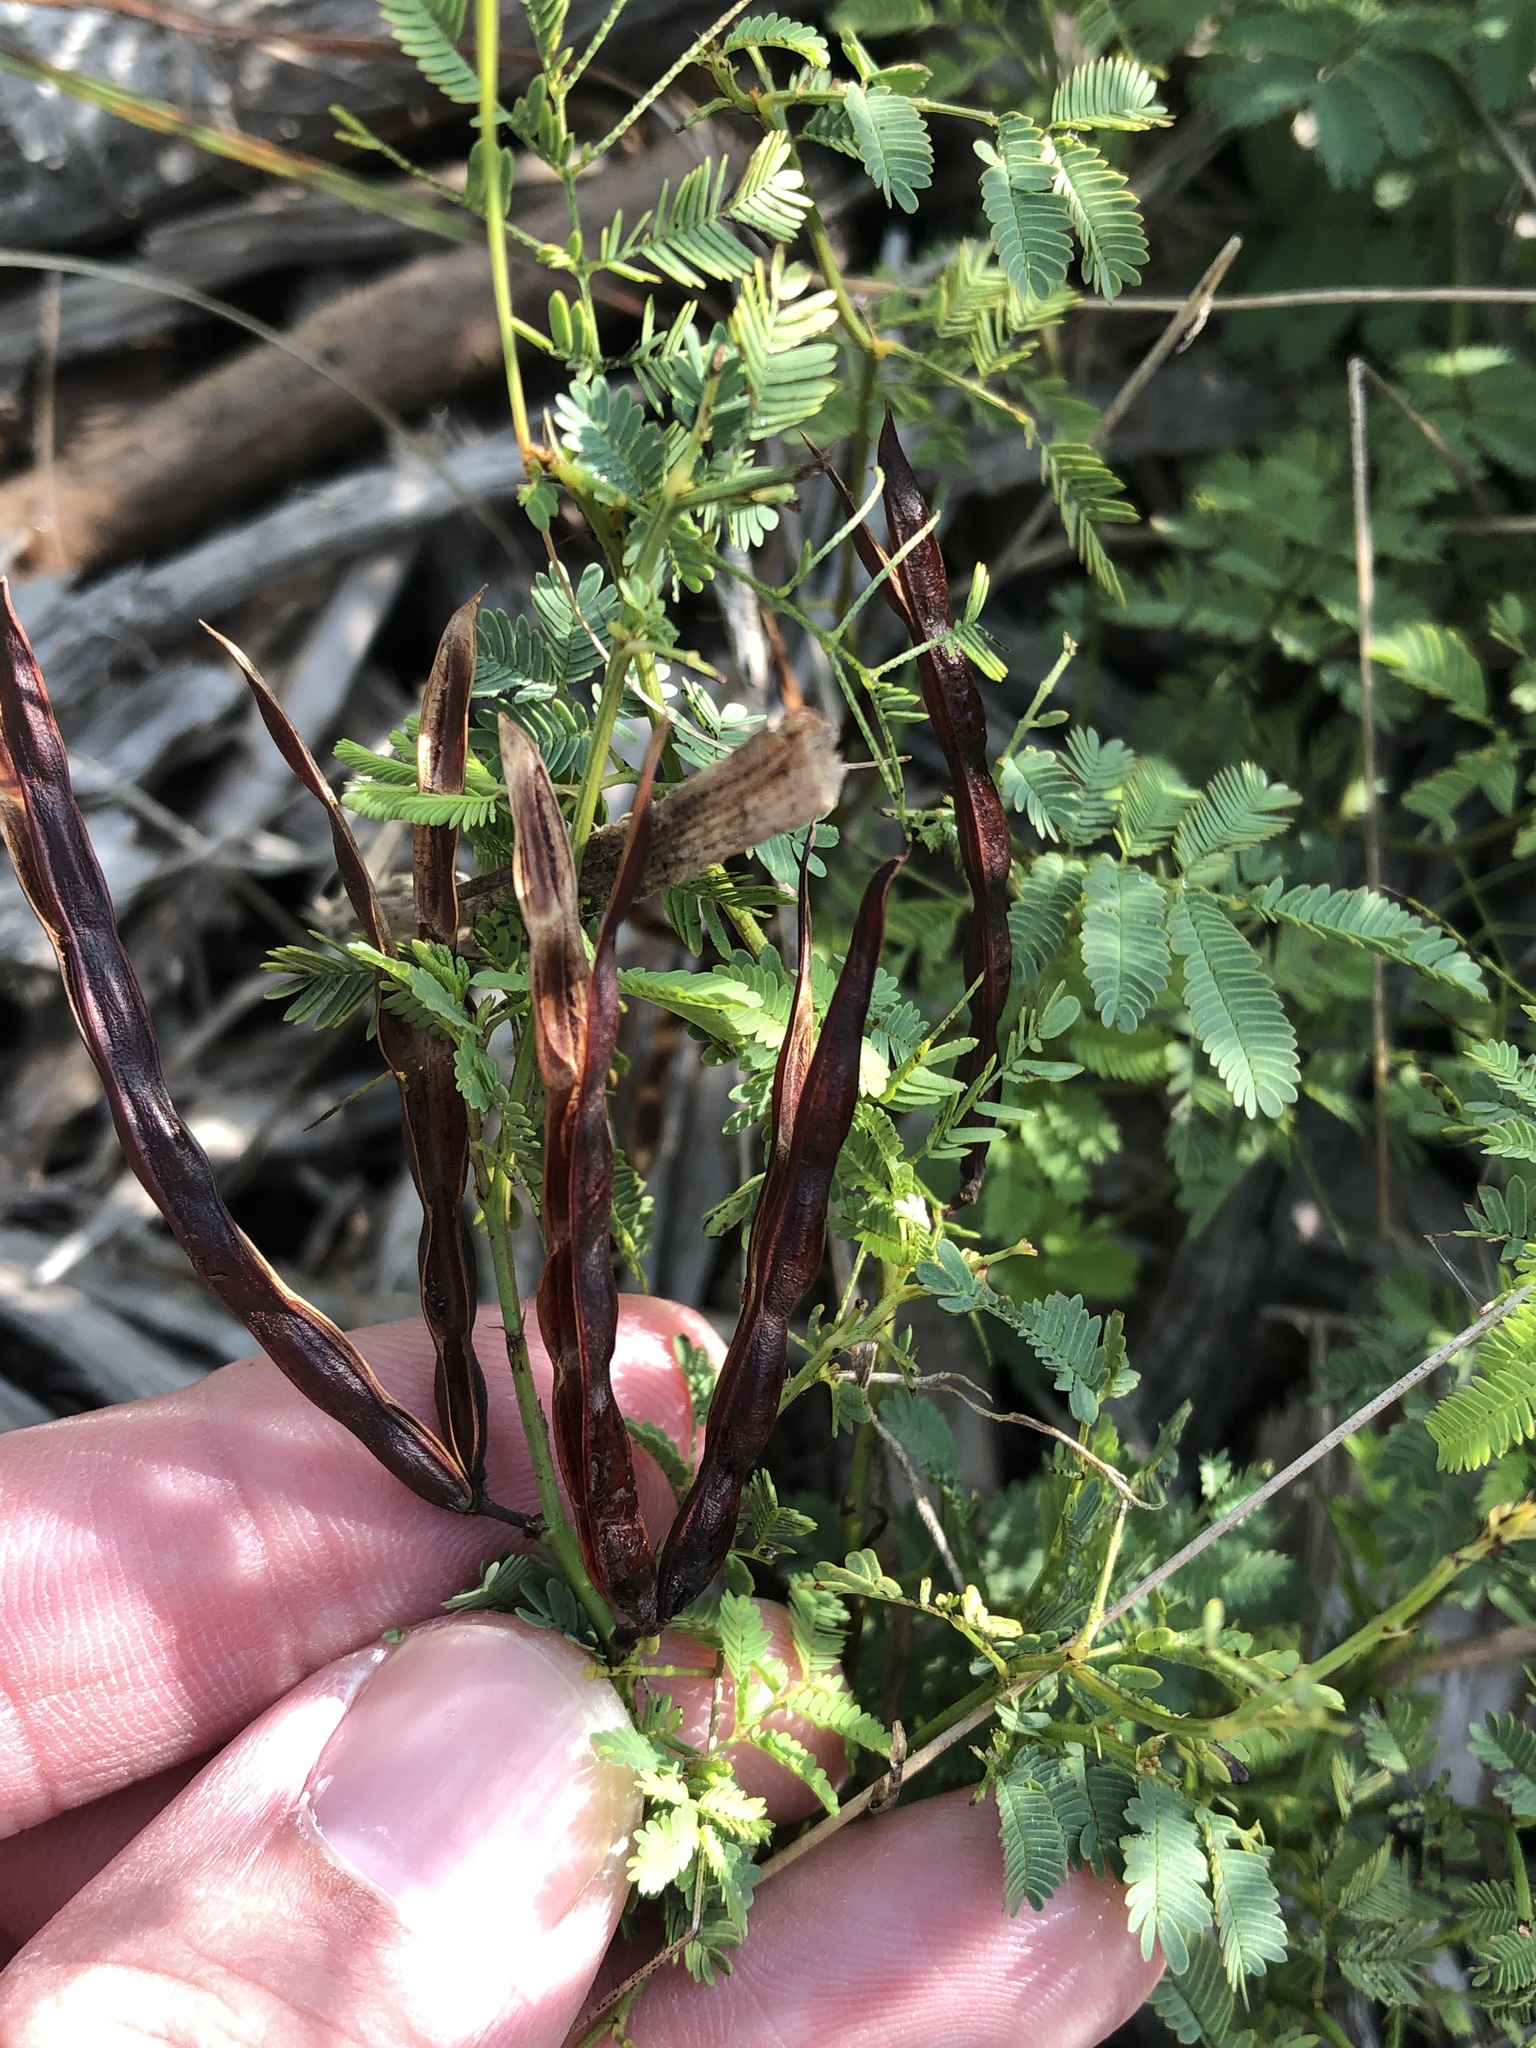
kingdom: Plantae
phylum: Tracheophyta
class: Magnoliopsida
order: Fabales
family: Fabaceae
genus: Desmanthus
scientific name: Desmanthus leptolobus
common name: Prairie-mimosa
